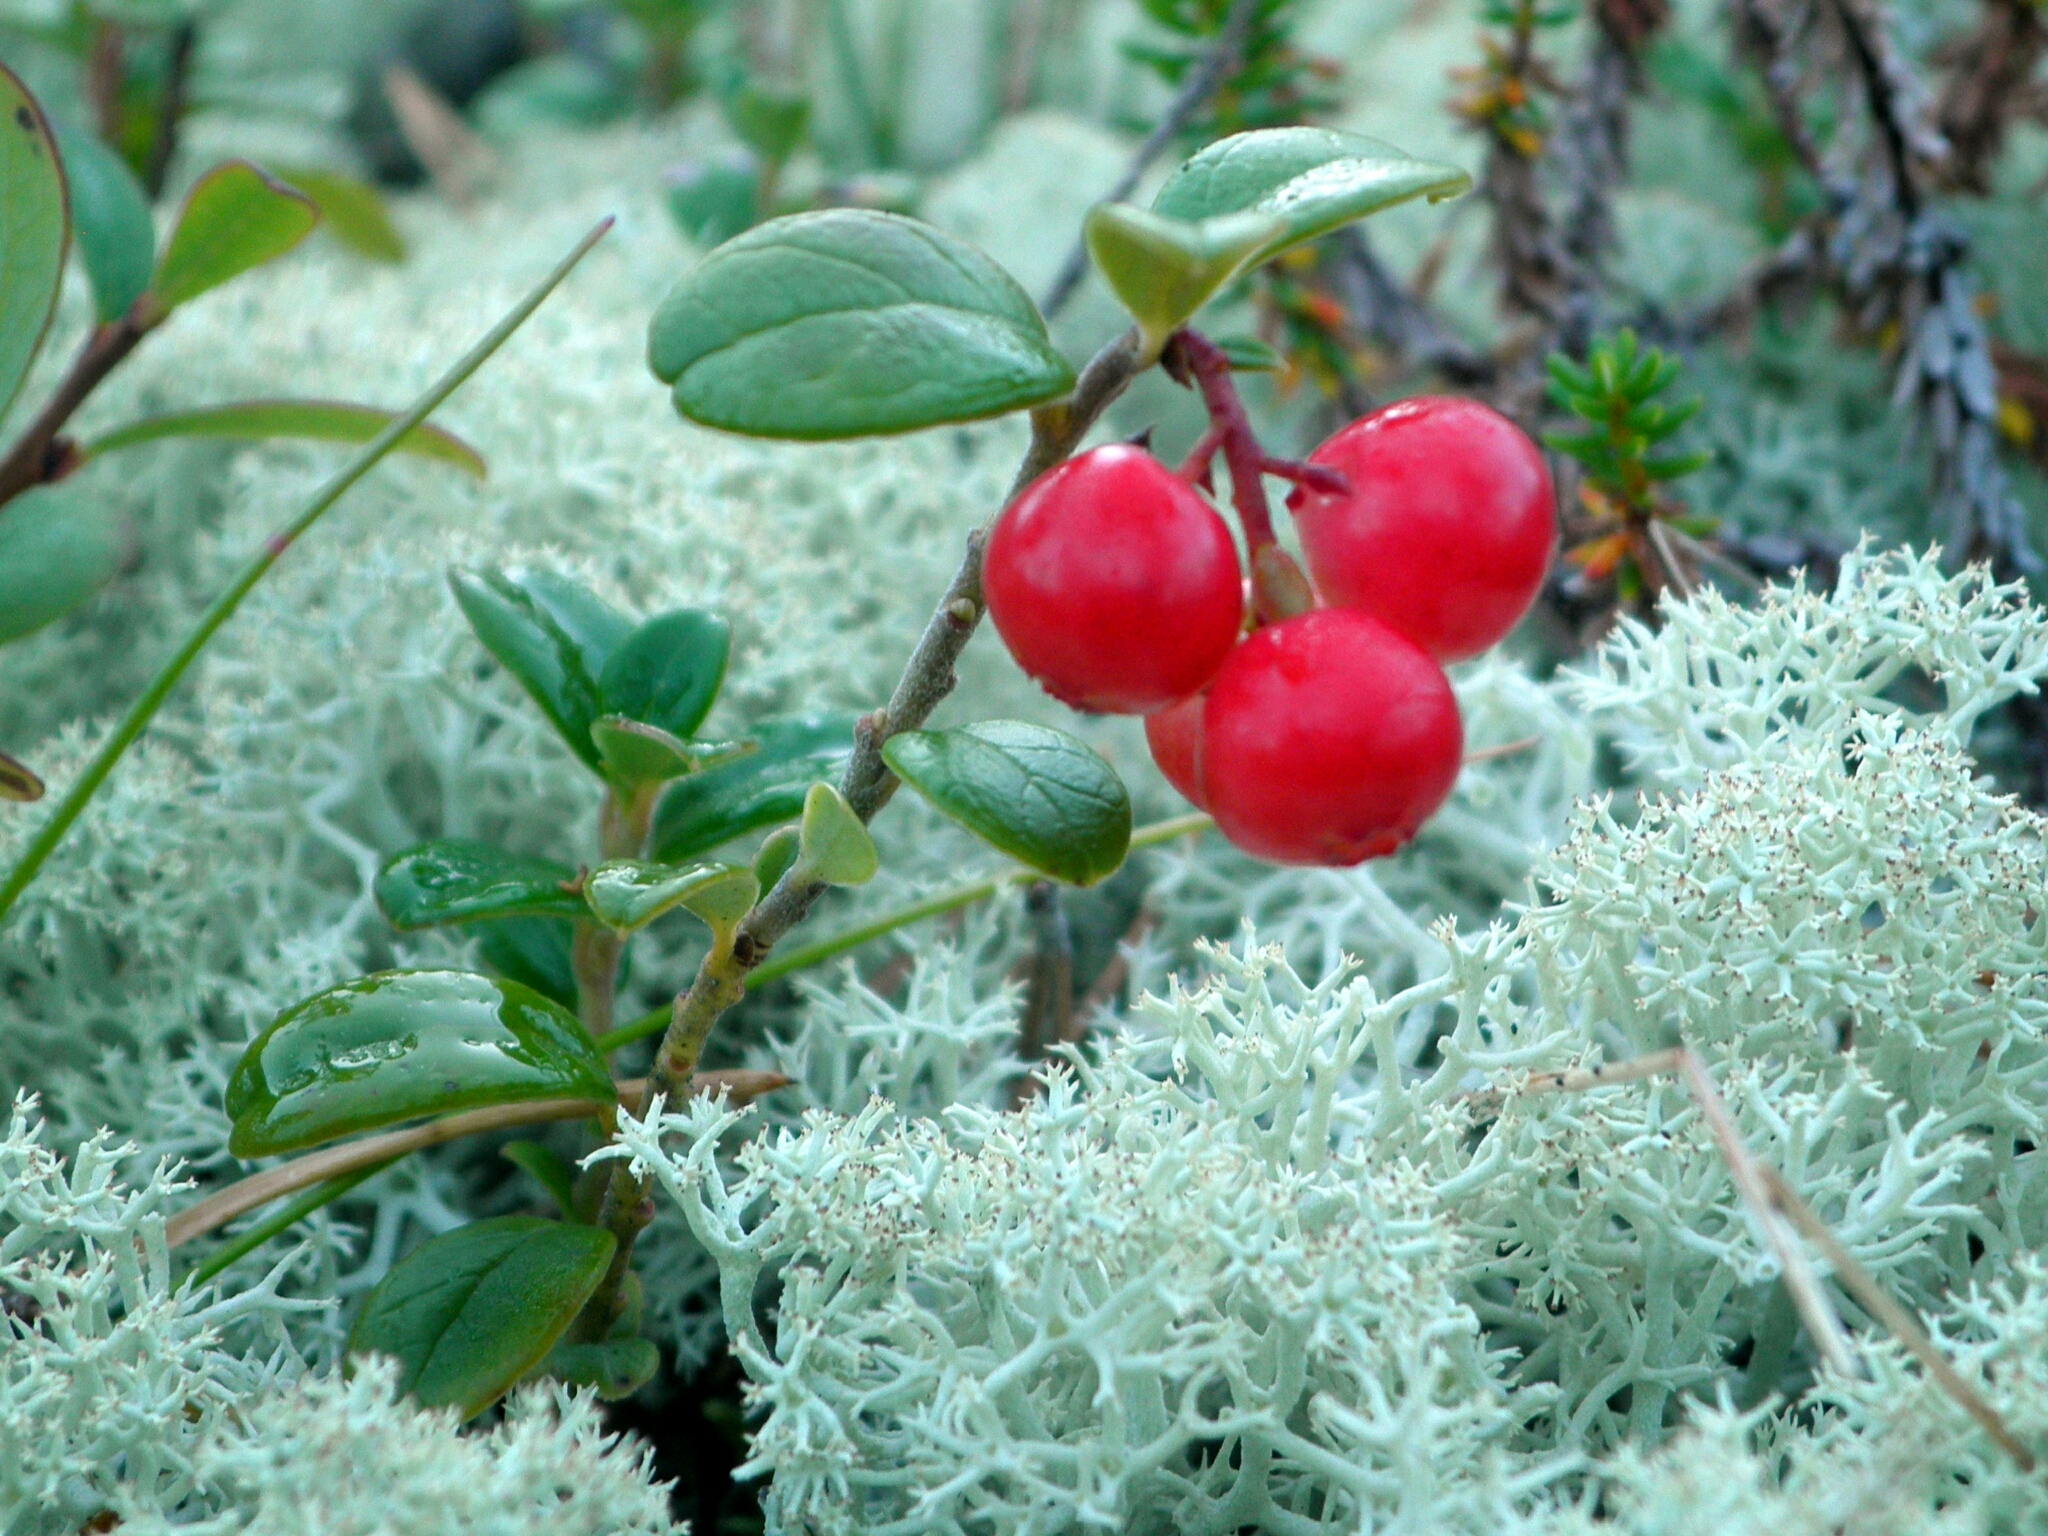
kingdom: Plantae
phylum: Tracheophyta
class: Magnoliopsida
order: Ericales
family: Ericaceae
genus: Vaccinium
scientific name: Vaccinium vitis-idaea
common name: Cowberry
